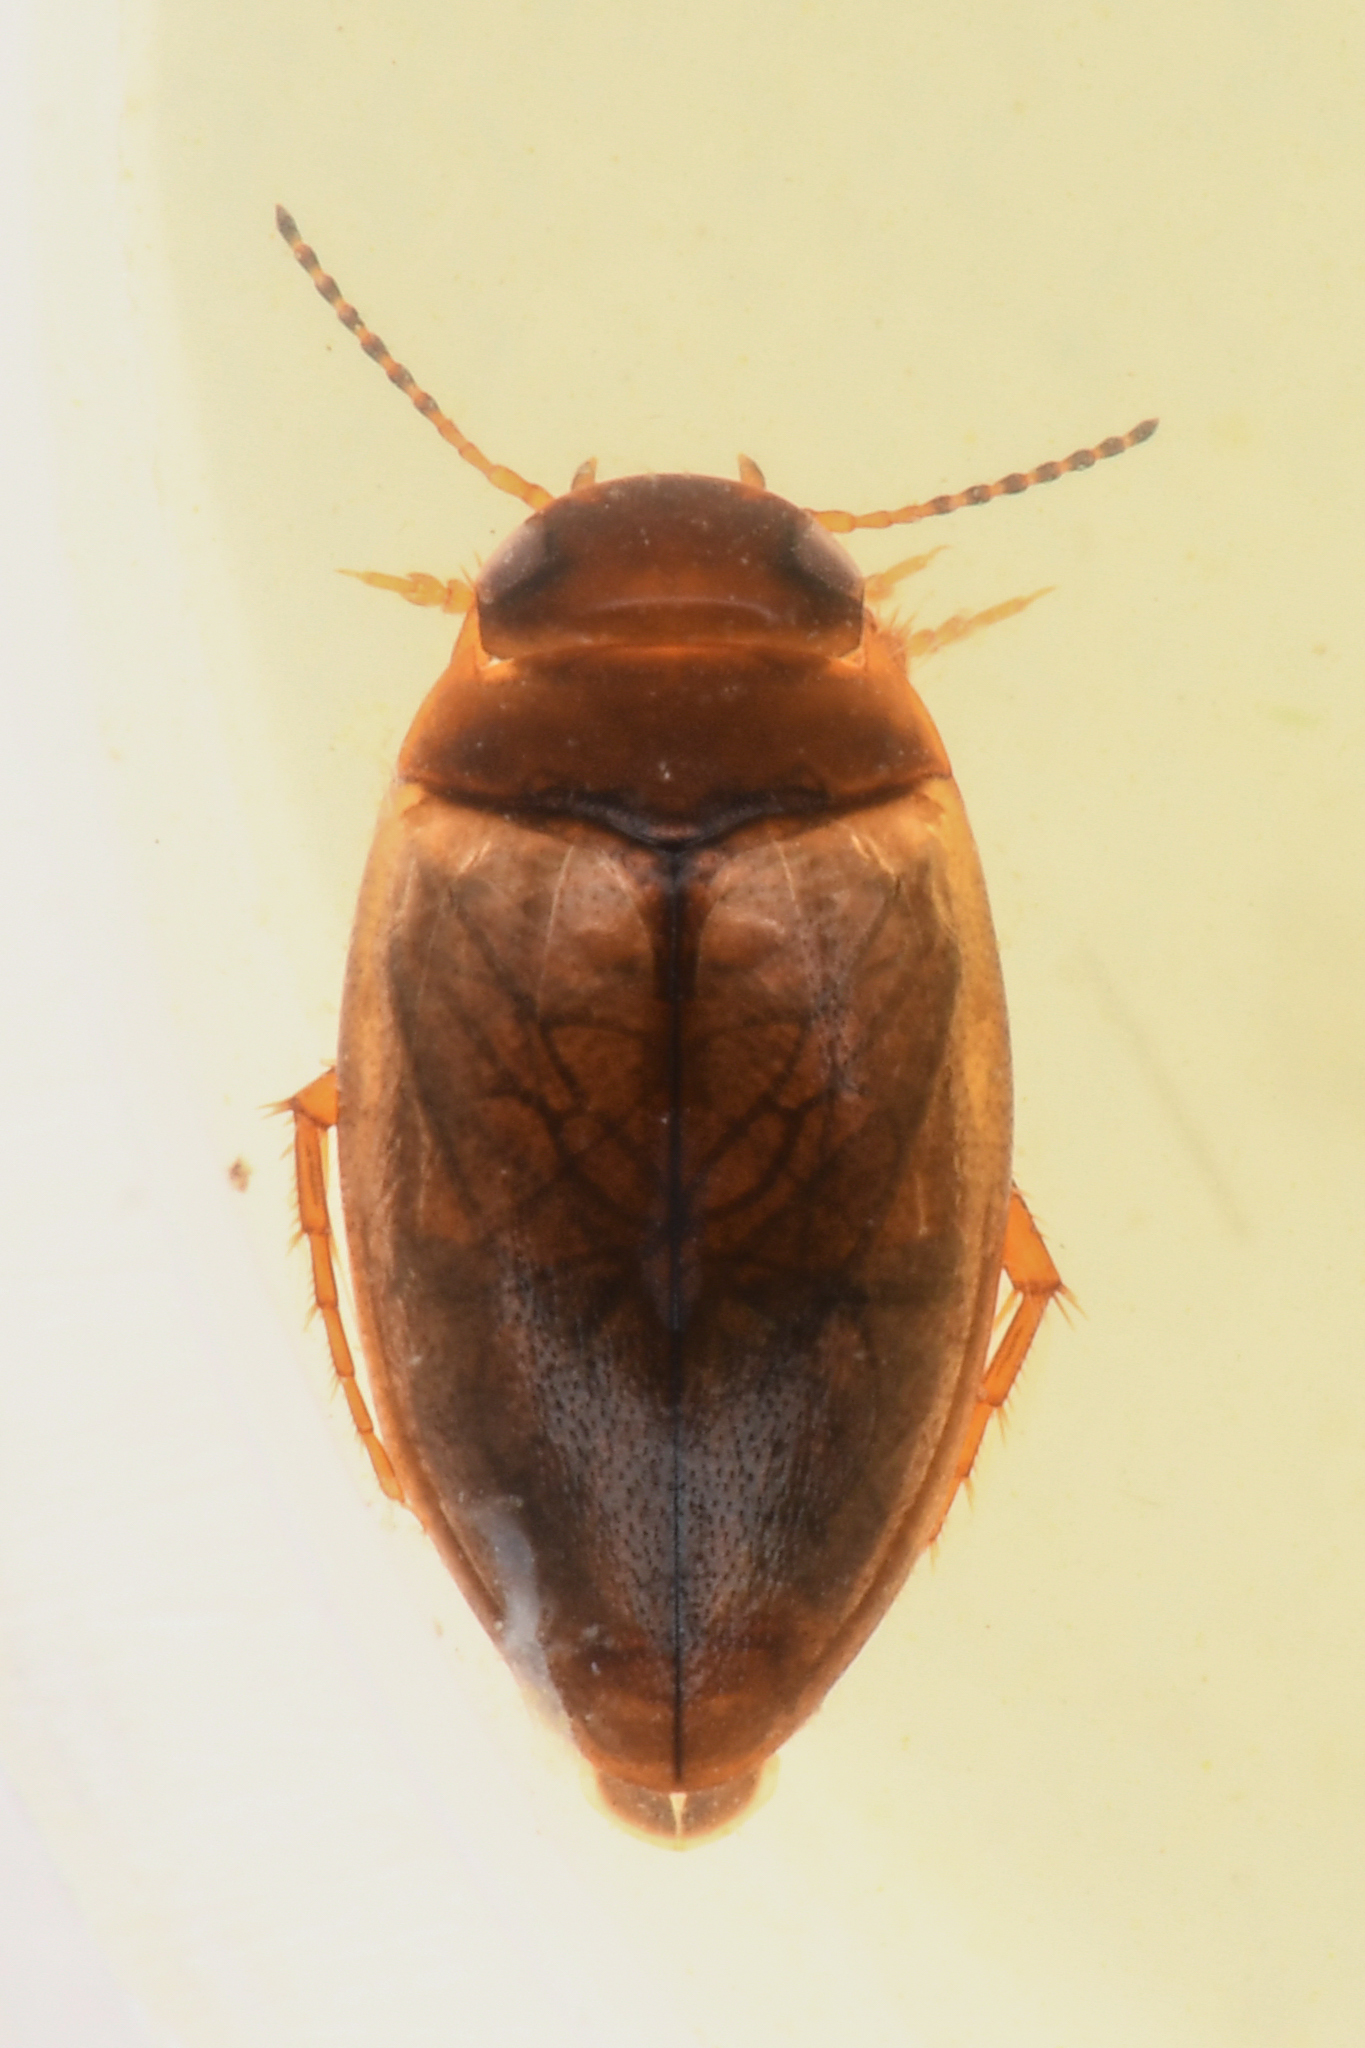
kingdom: Animalia
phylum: Arthropoda
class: Insecta
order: Coleoptera
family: Dytiscidae
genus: Sanfilippodytes
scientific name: Sanfilippodytes
